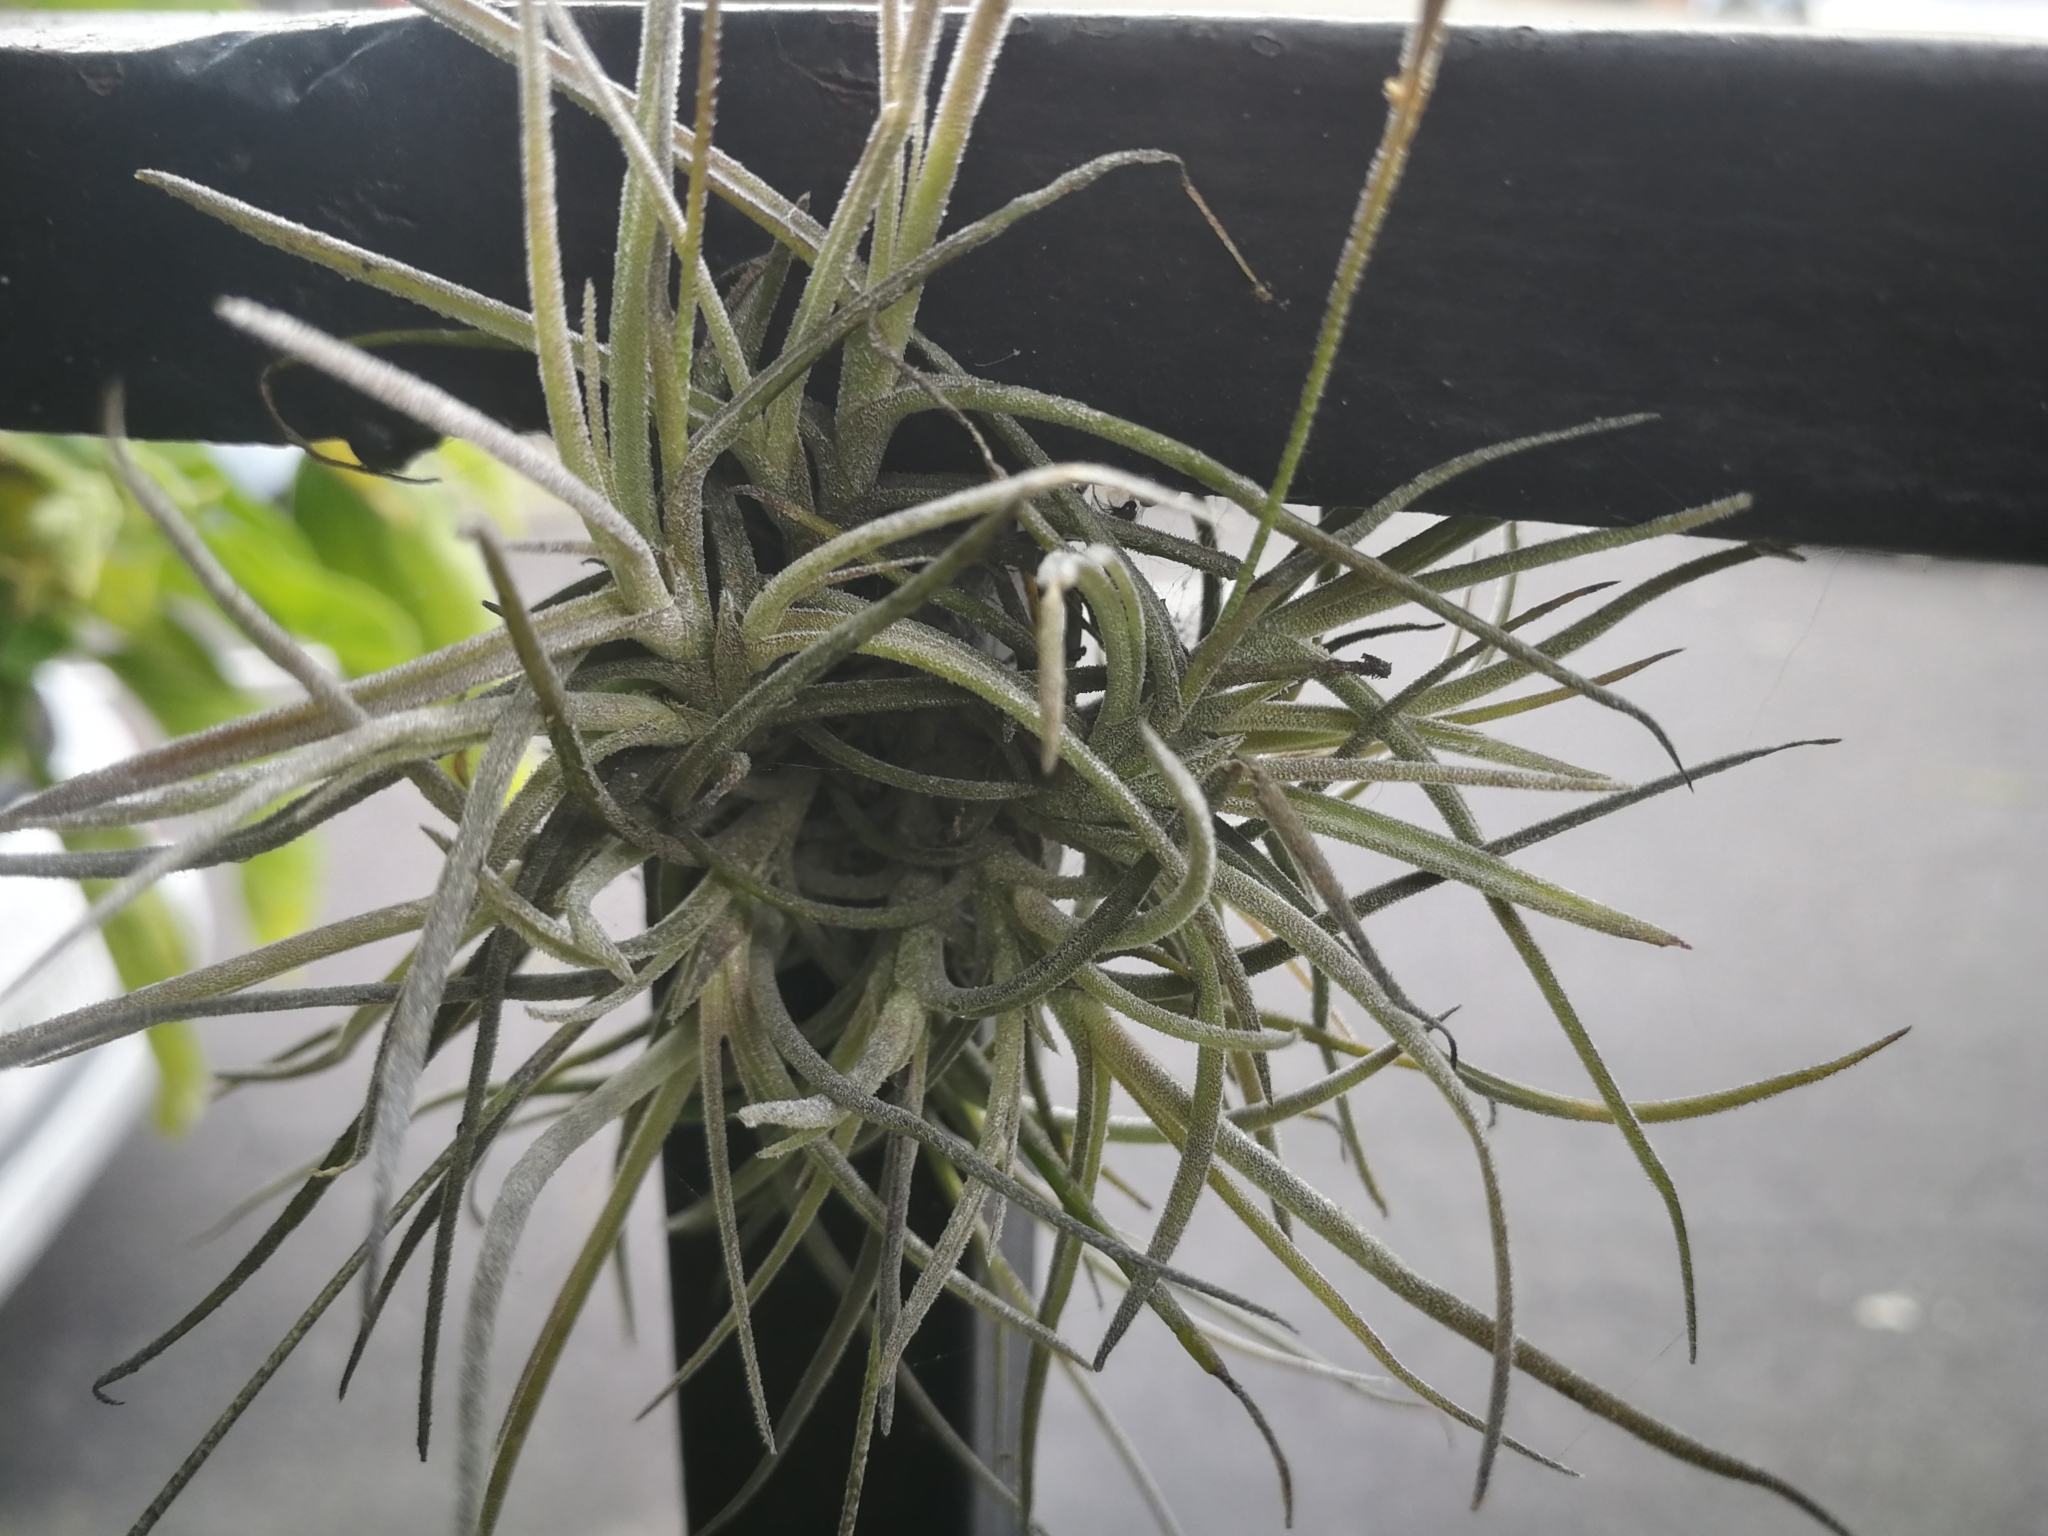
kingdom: Plantae
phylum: Tracheophyta
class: Liliopsida
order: Poales
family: Bromeliaceae
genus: Tillandsia
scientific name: Tillandsia recurvata
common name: Small ballmoss
